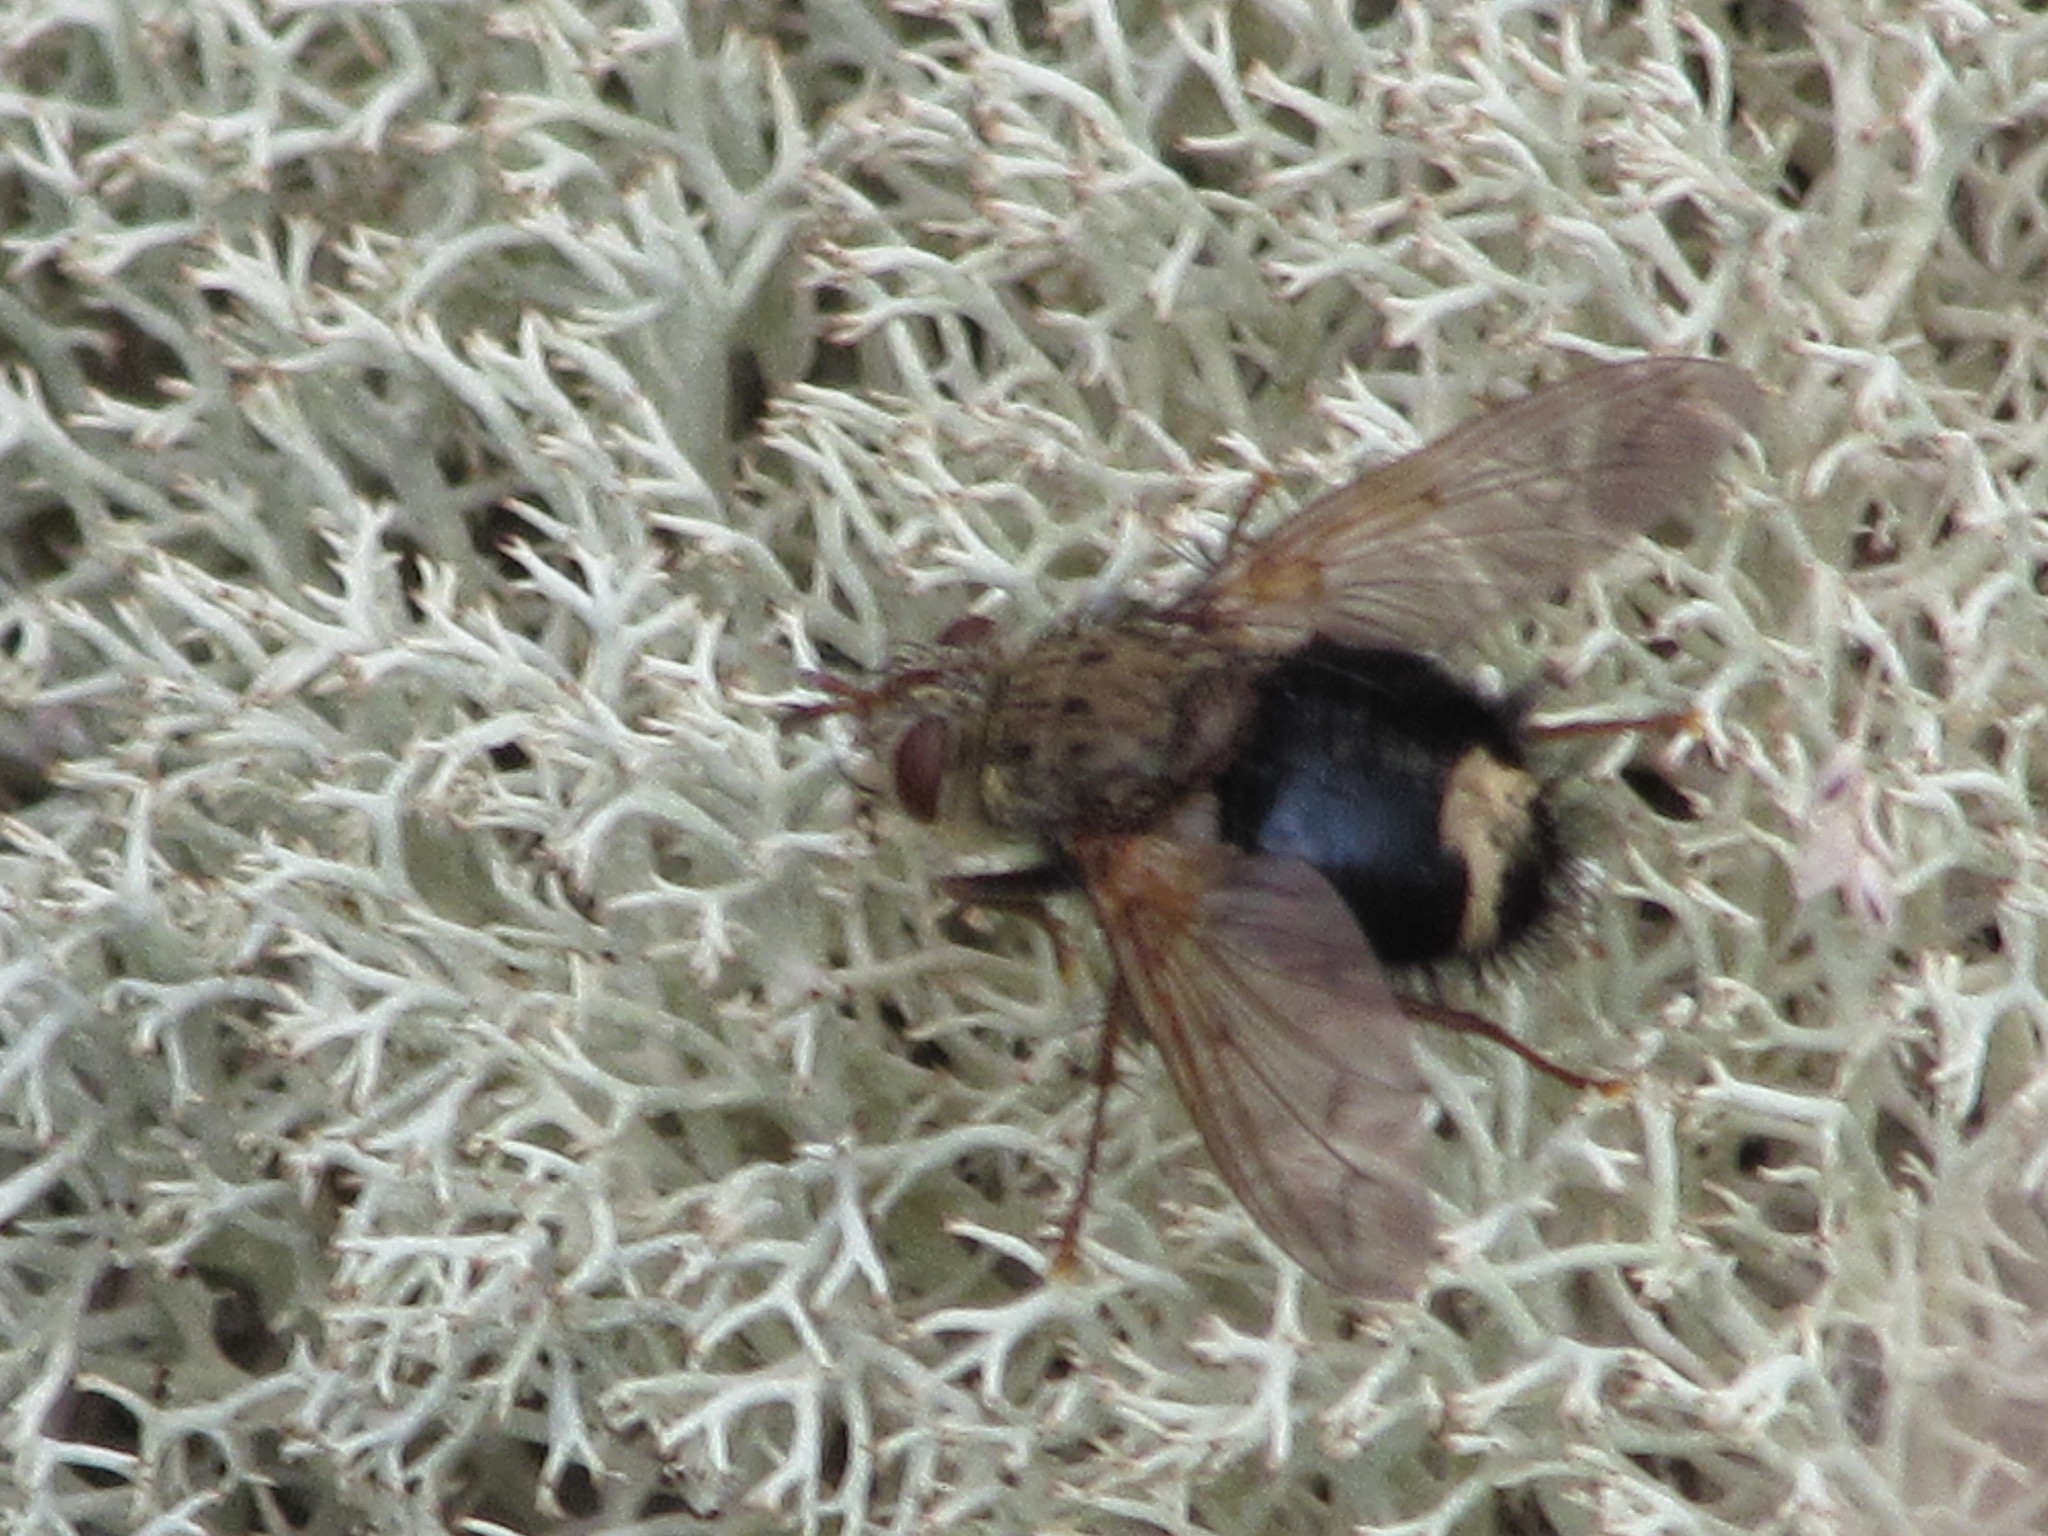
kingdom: Animalia
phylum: Arthropoda
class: Insecta
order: Diptera
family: Tachinidae
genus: Epalpus
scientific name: Epalpus signifer
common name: Early tachinid fly
